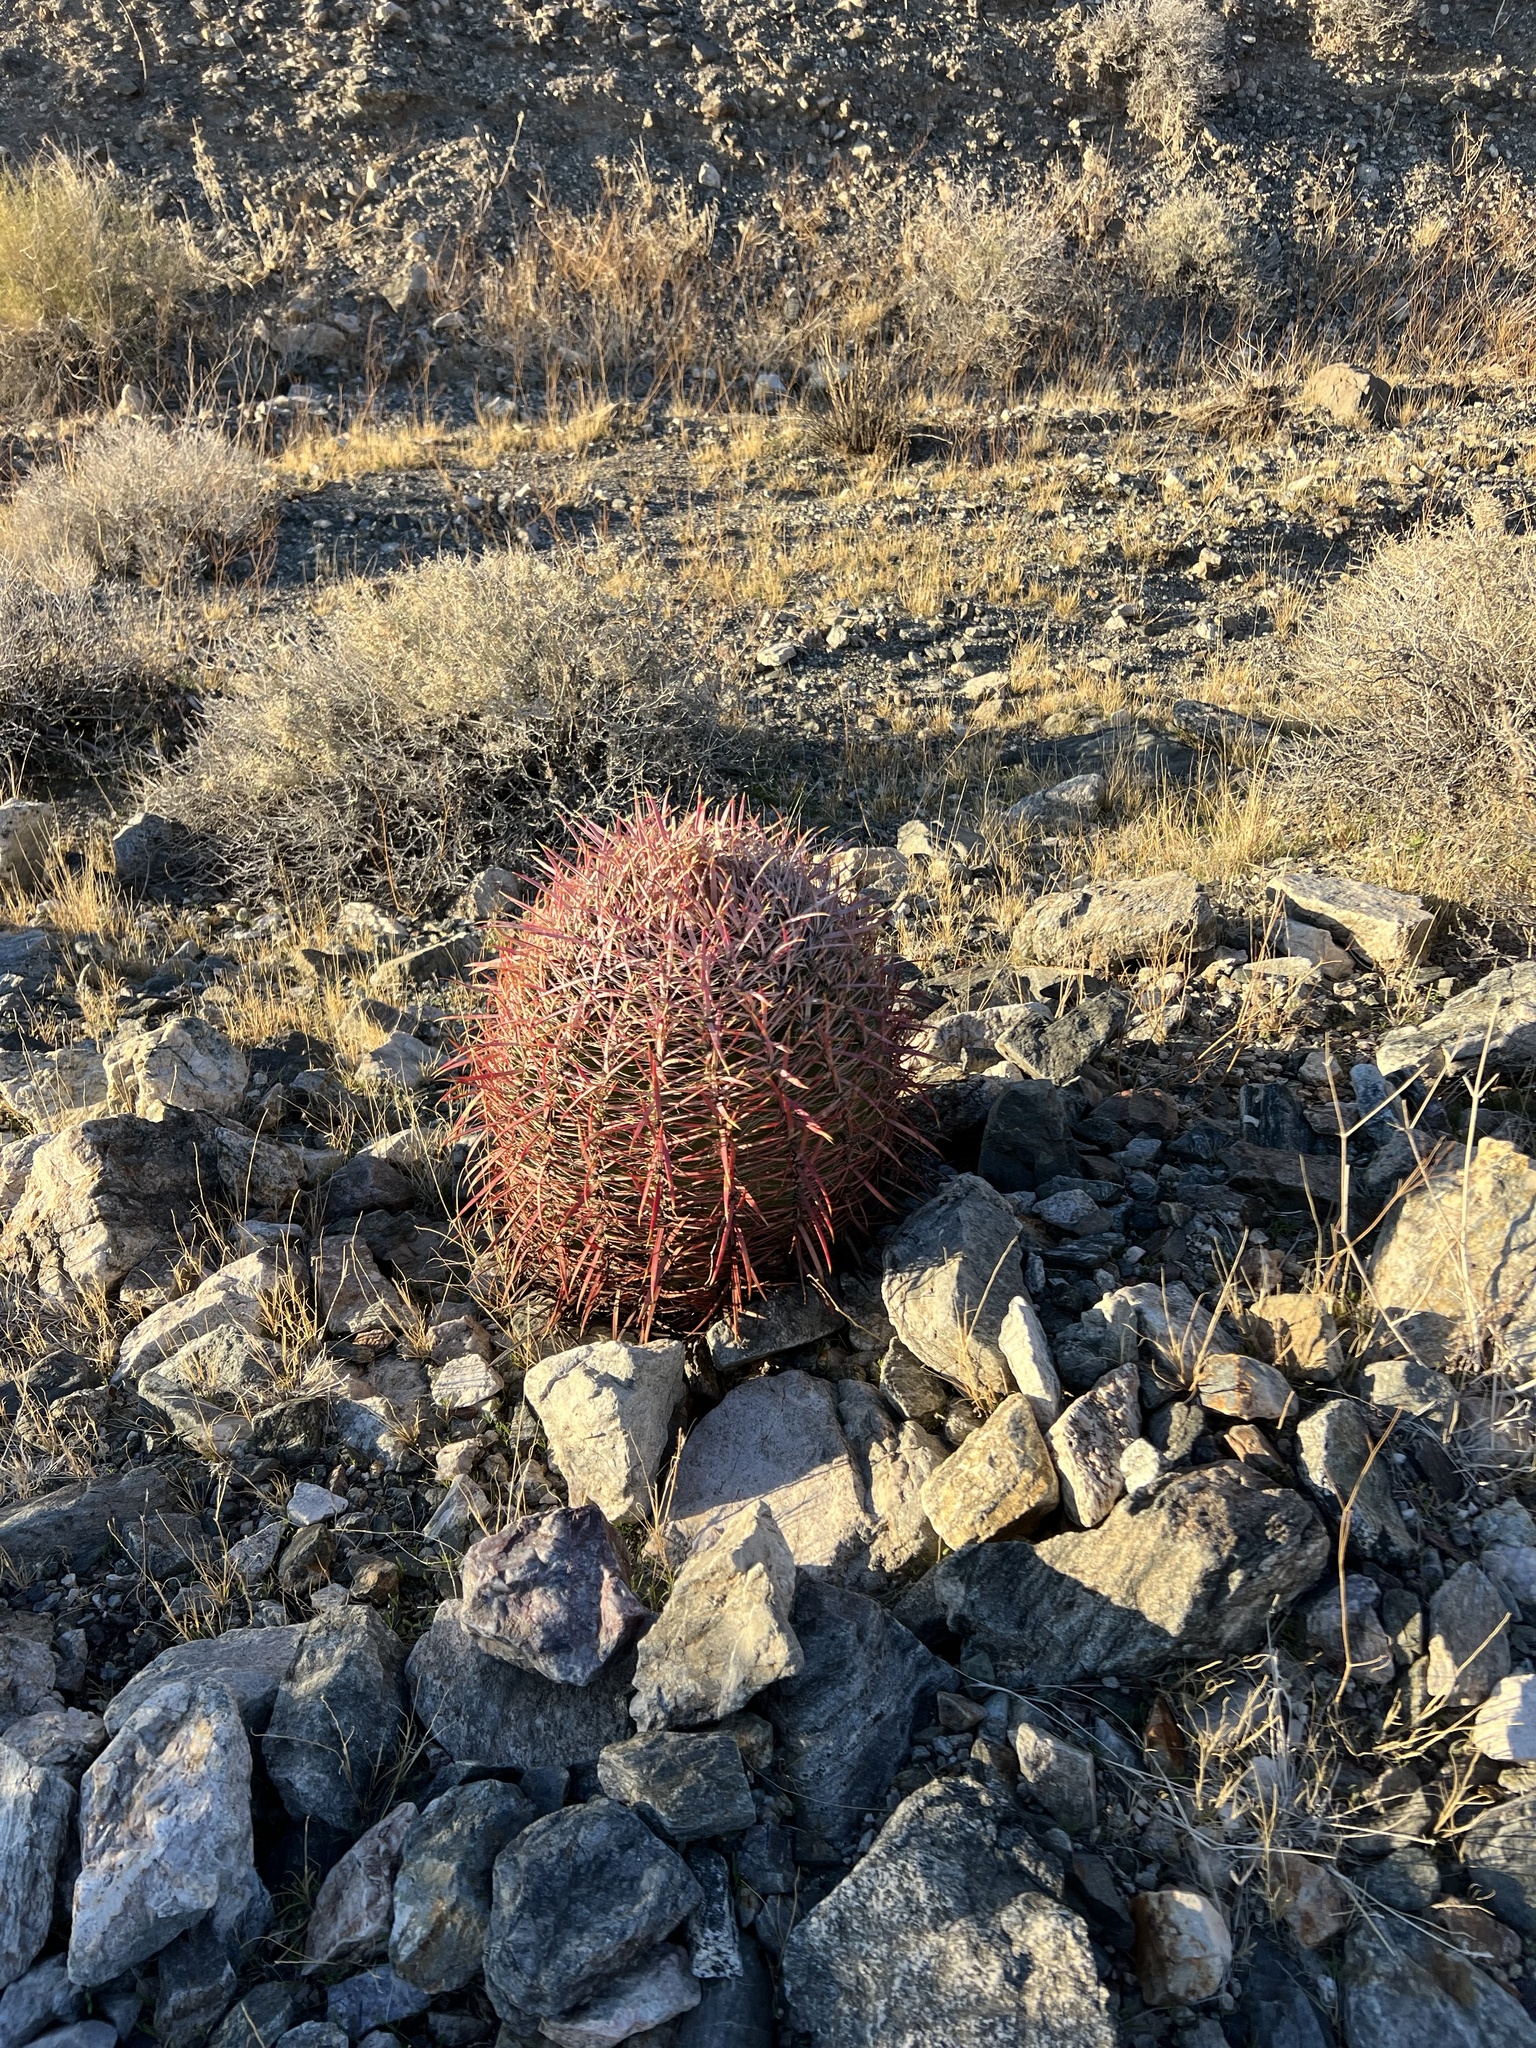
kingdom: Plantae
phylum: Tracheophyta
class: Magnoliopsida
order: Caryophyllales
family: Cactaceae
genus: Ferocactus
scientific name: Ferocactus cylindraceus
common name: California barrel cactus
